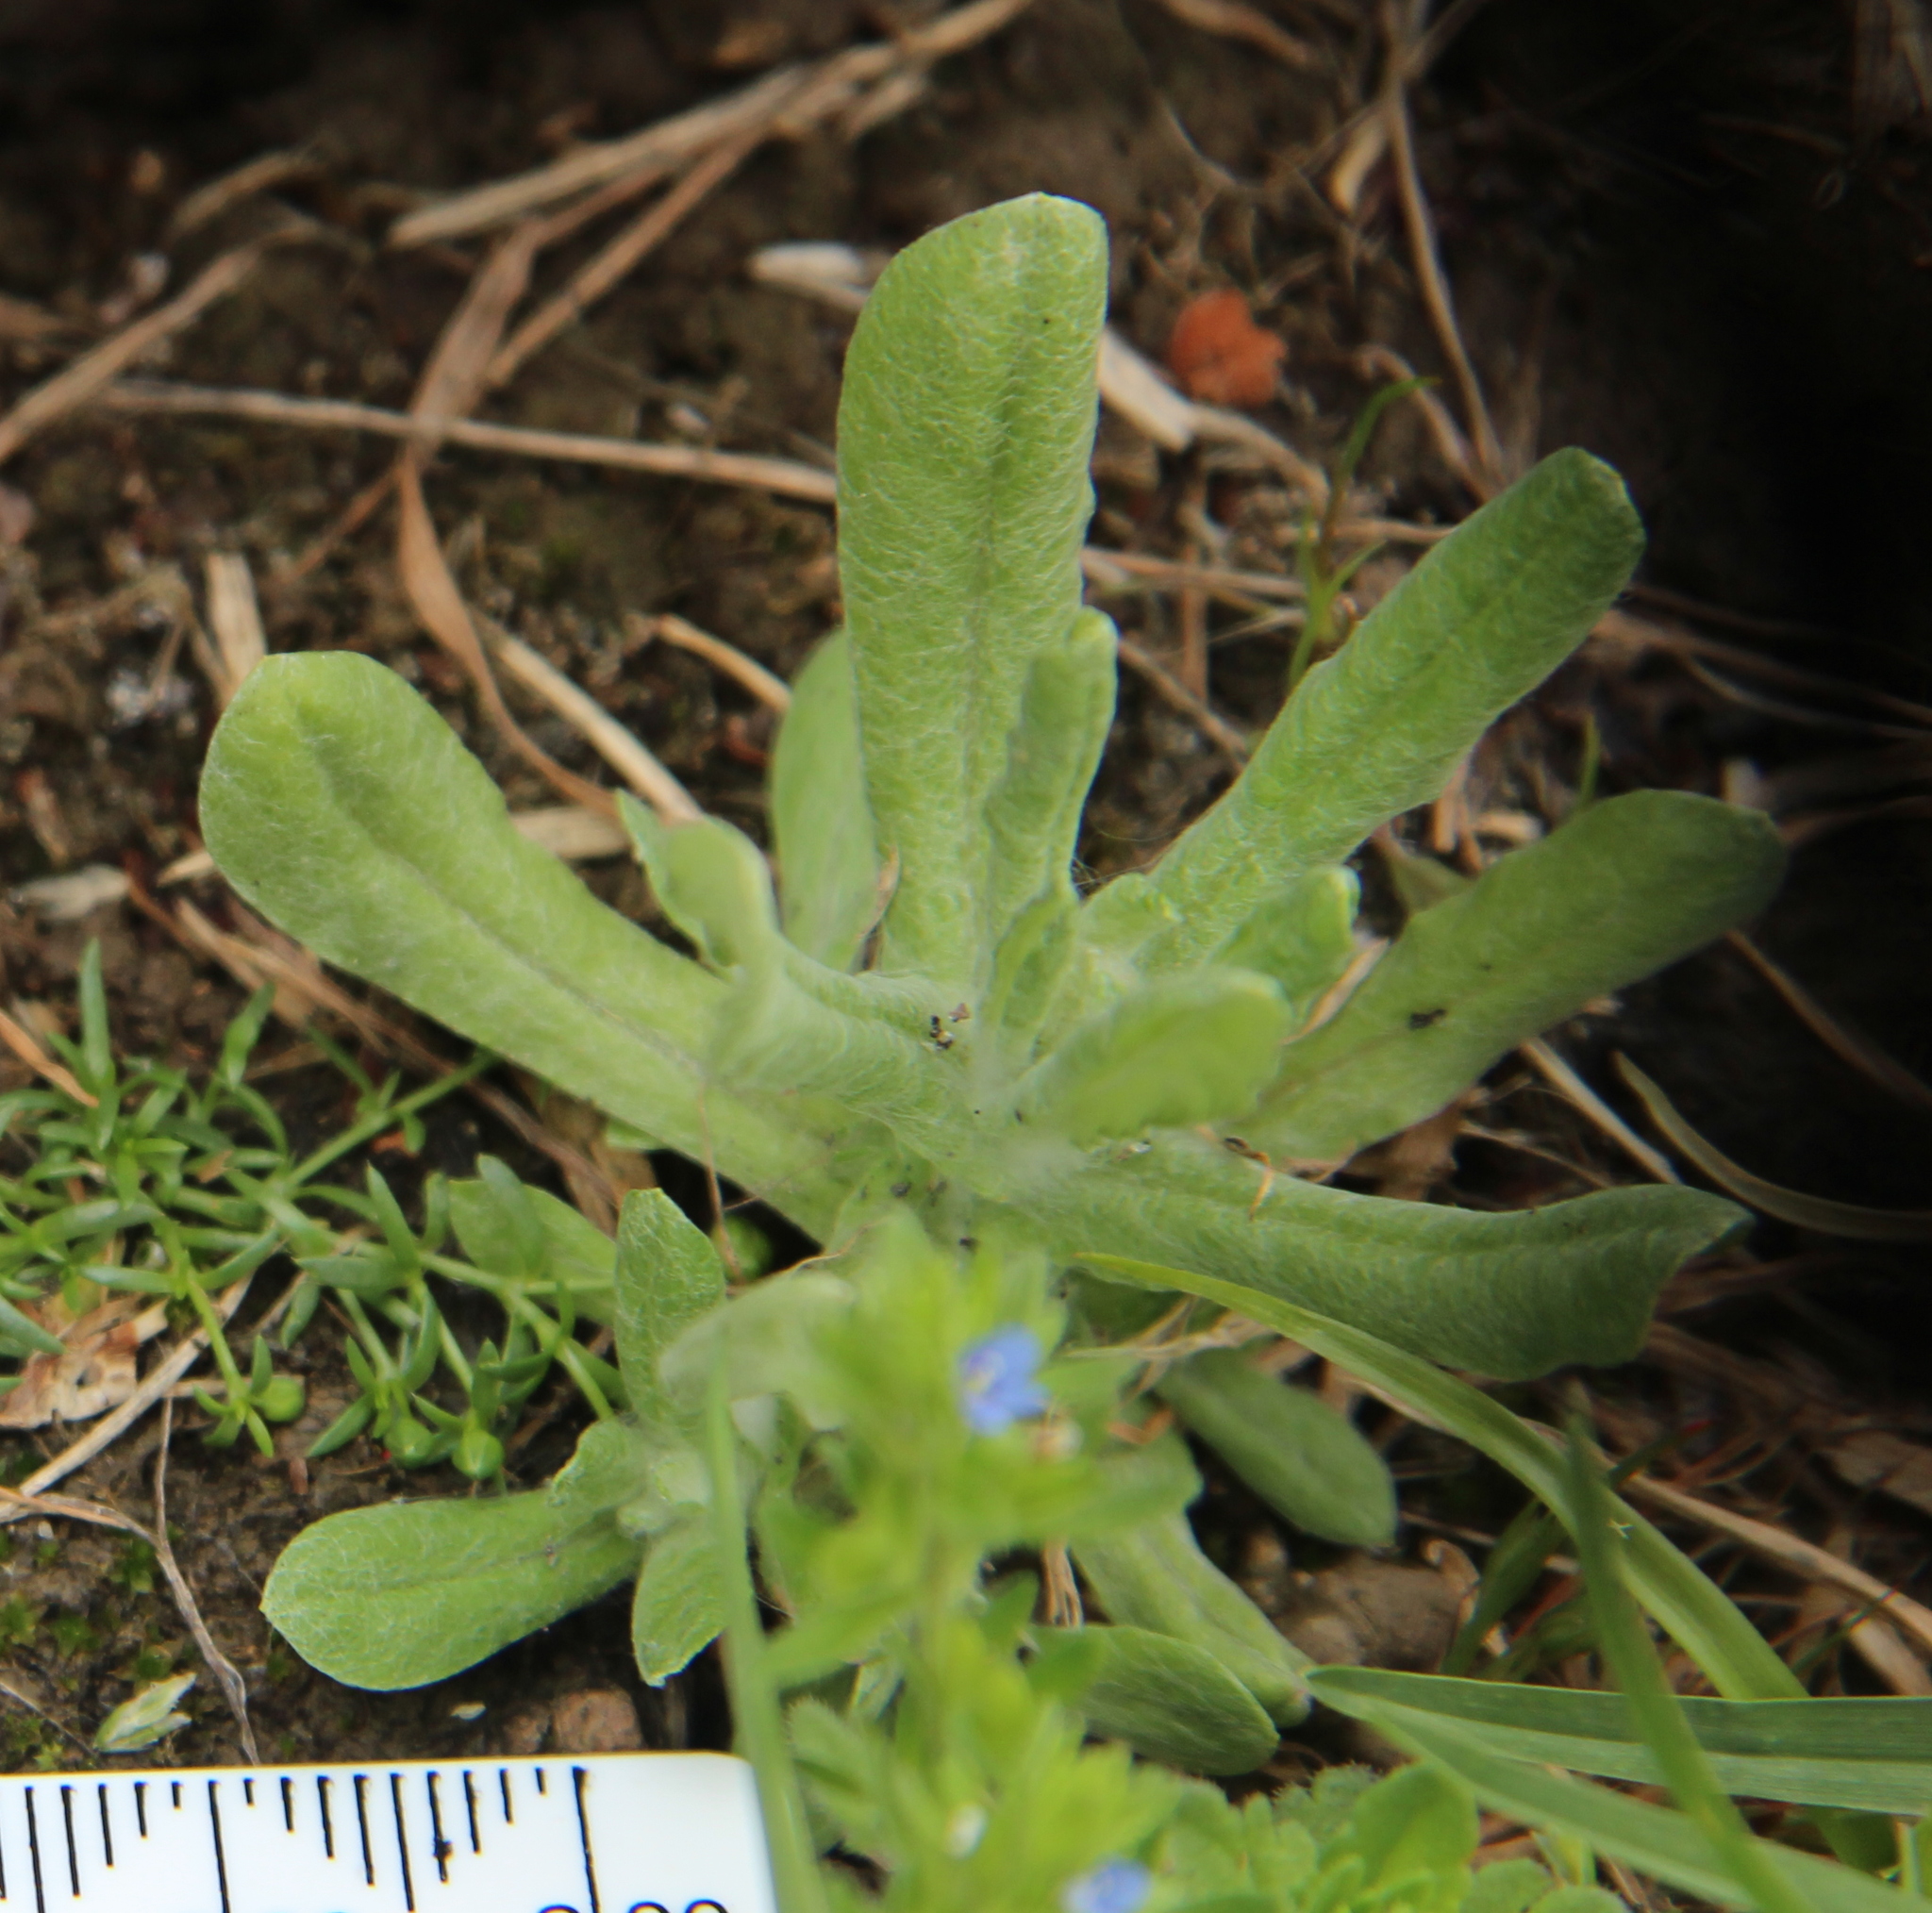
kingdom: Plantae
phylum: Tracheophyta
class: Magnoliopsida
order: Asterales
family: Asteraceae
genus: Helichrysum
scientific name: Helichrysum luteoalbum
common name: Daisy
